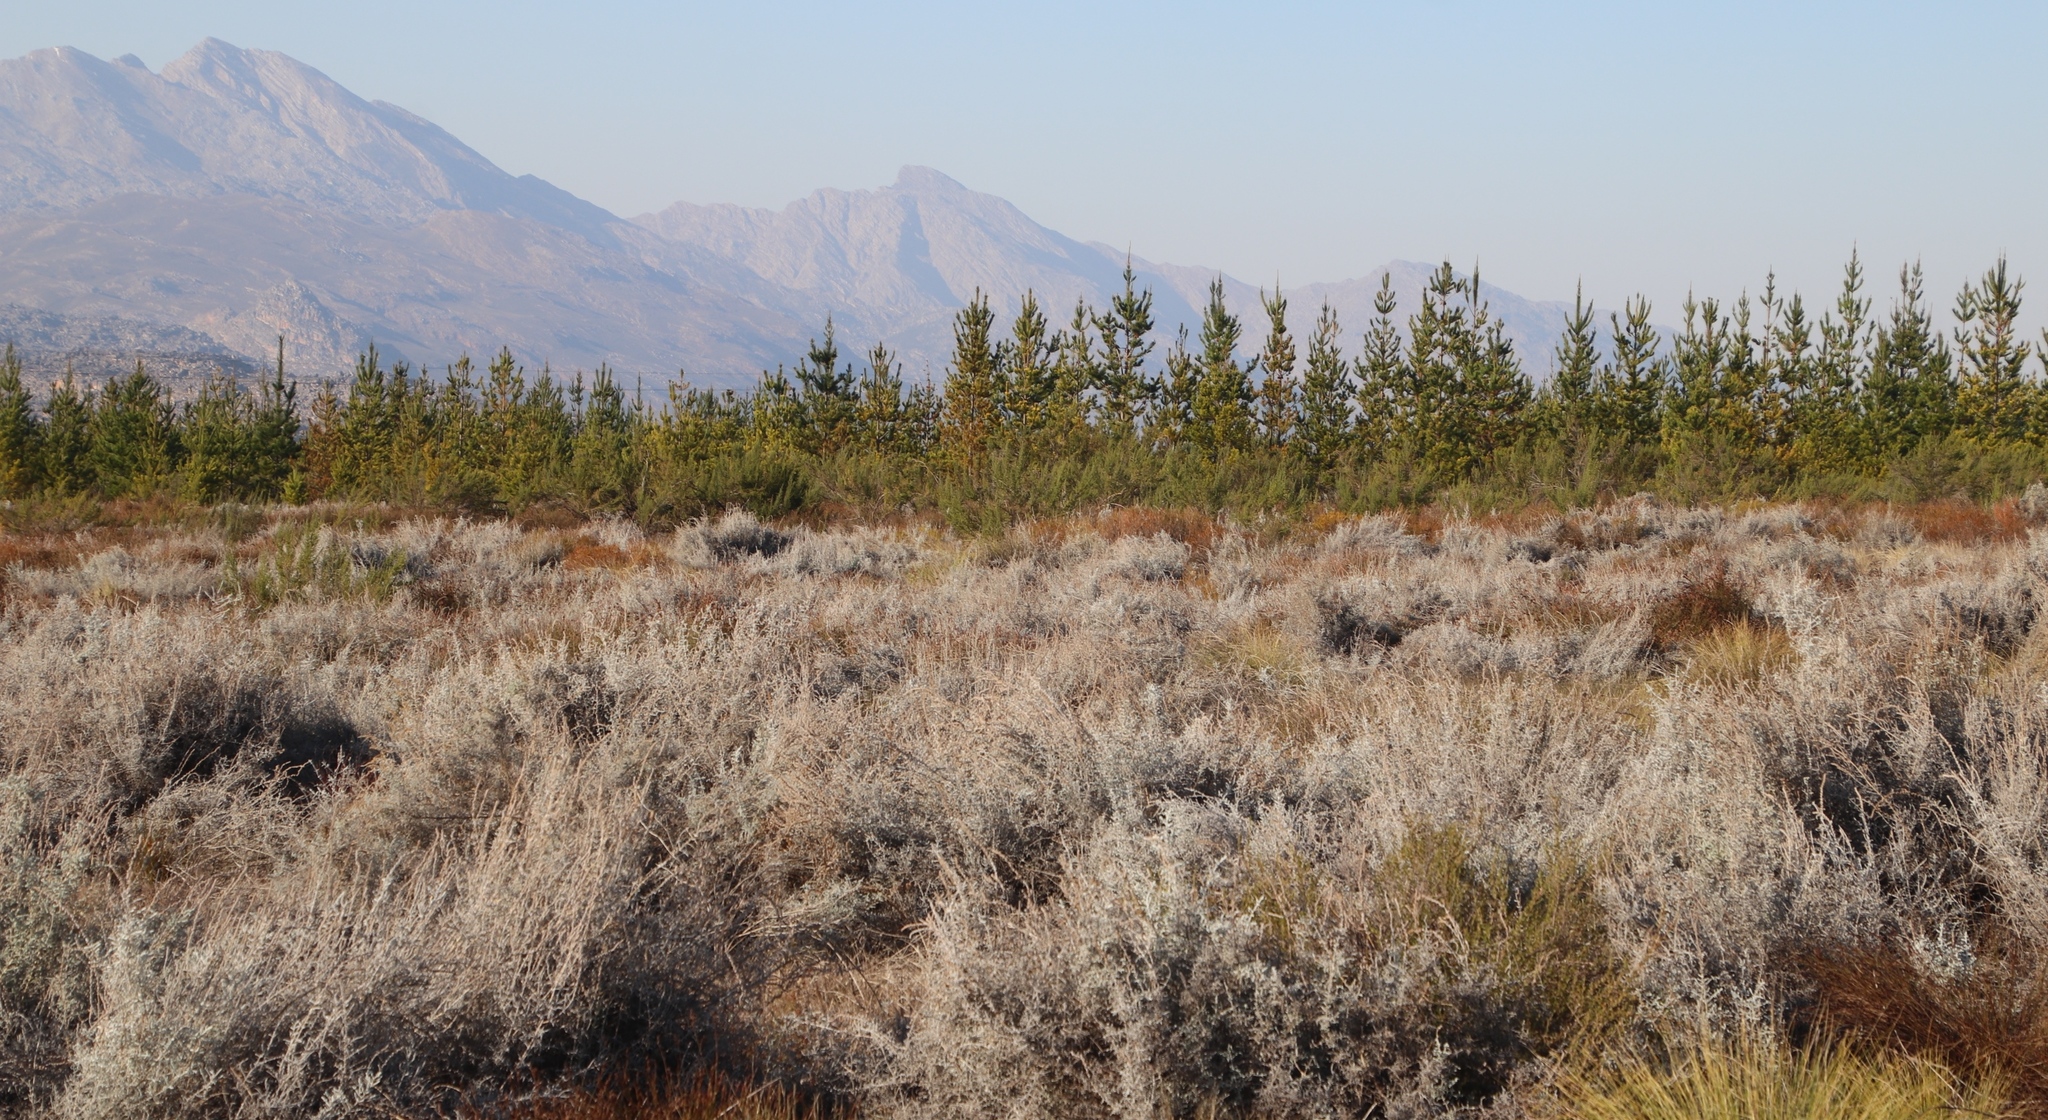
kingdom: Plantae
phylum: Tracheophyta
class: Magnoliopsida
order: Asterales
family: Asteraceae
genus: Seriphium
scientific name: Seriphium plumosum
